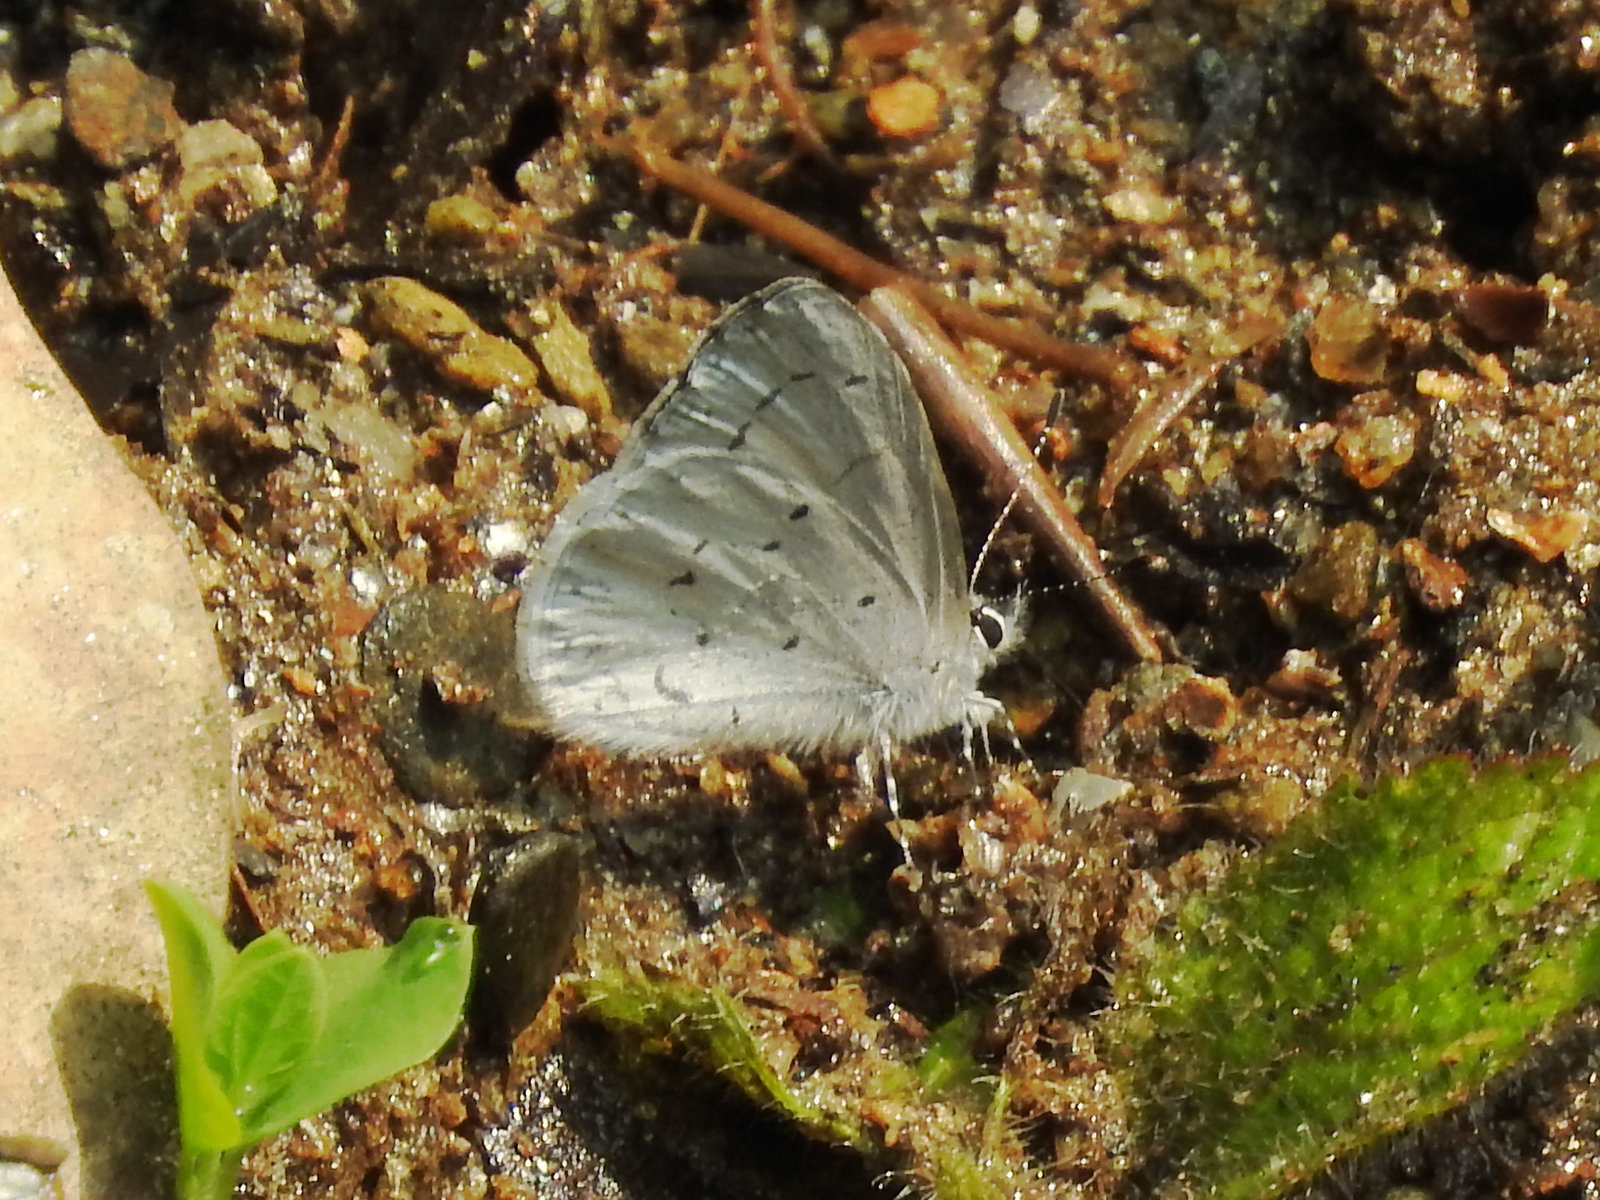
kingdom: Animalia
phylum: Arthropoda
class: Insecta
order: Lepidoptera
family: Lycaenidae
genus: Celastrina
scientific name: Celastrina lavendularis
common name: Plain hedge blue
